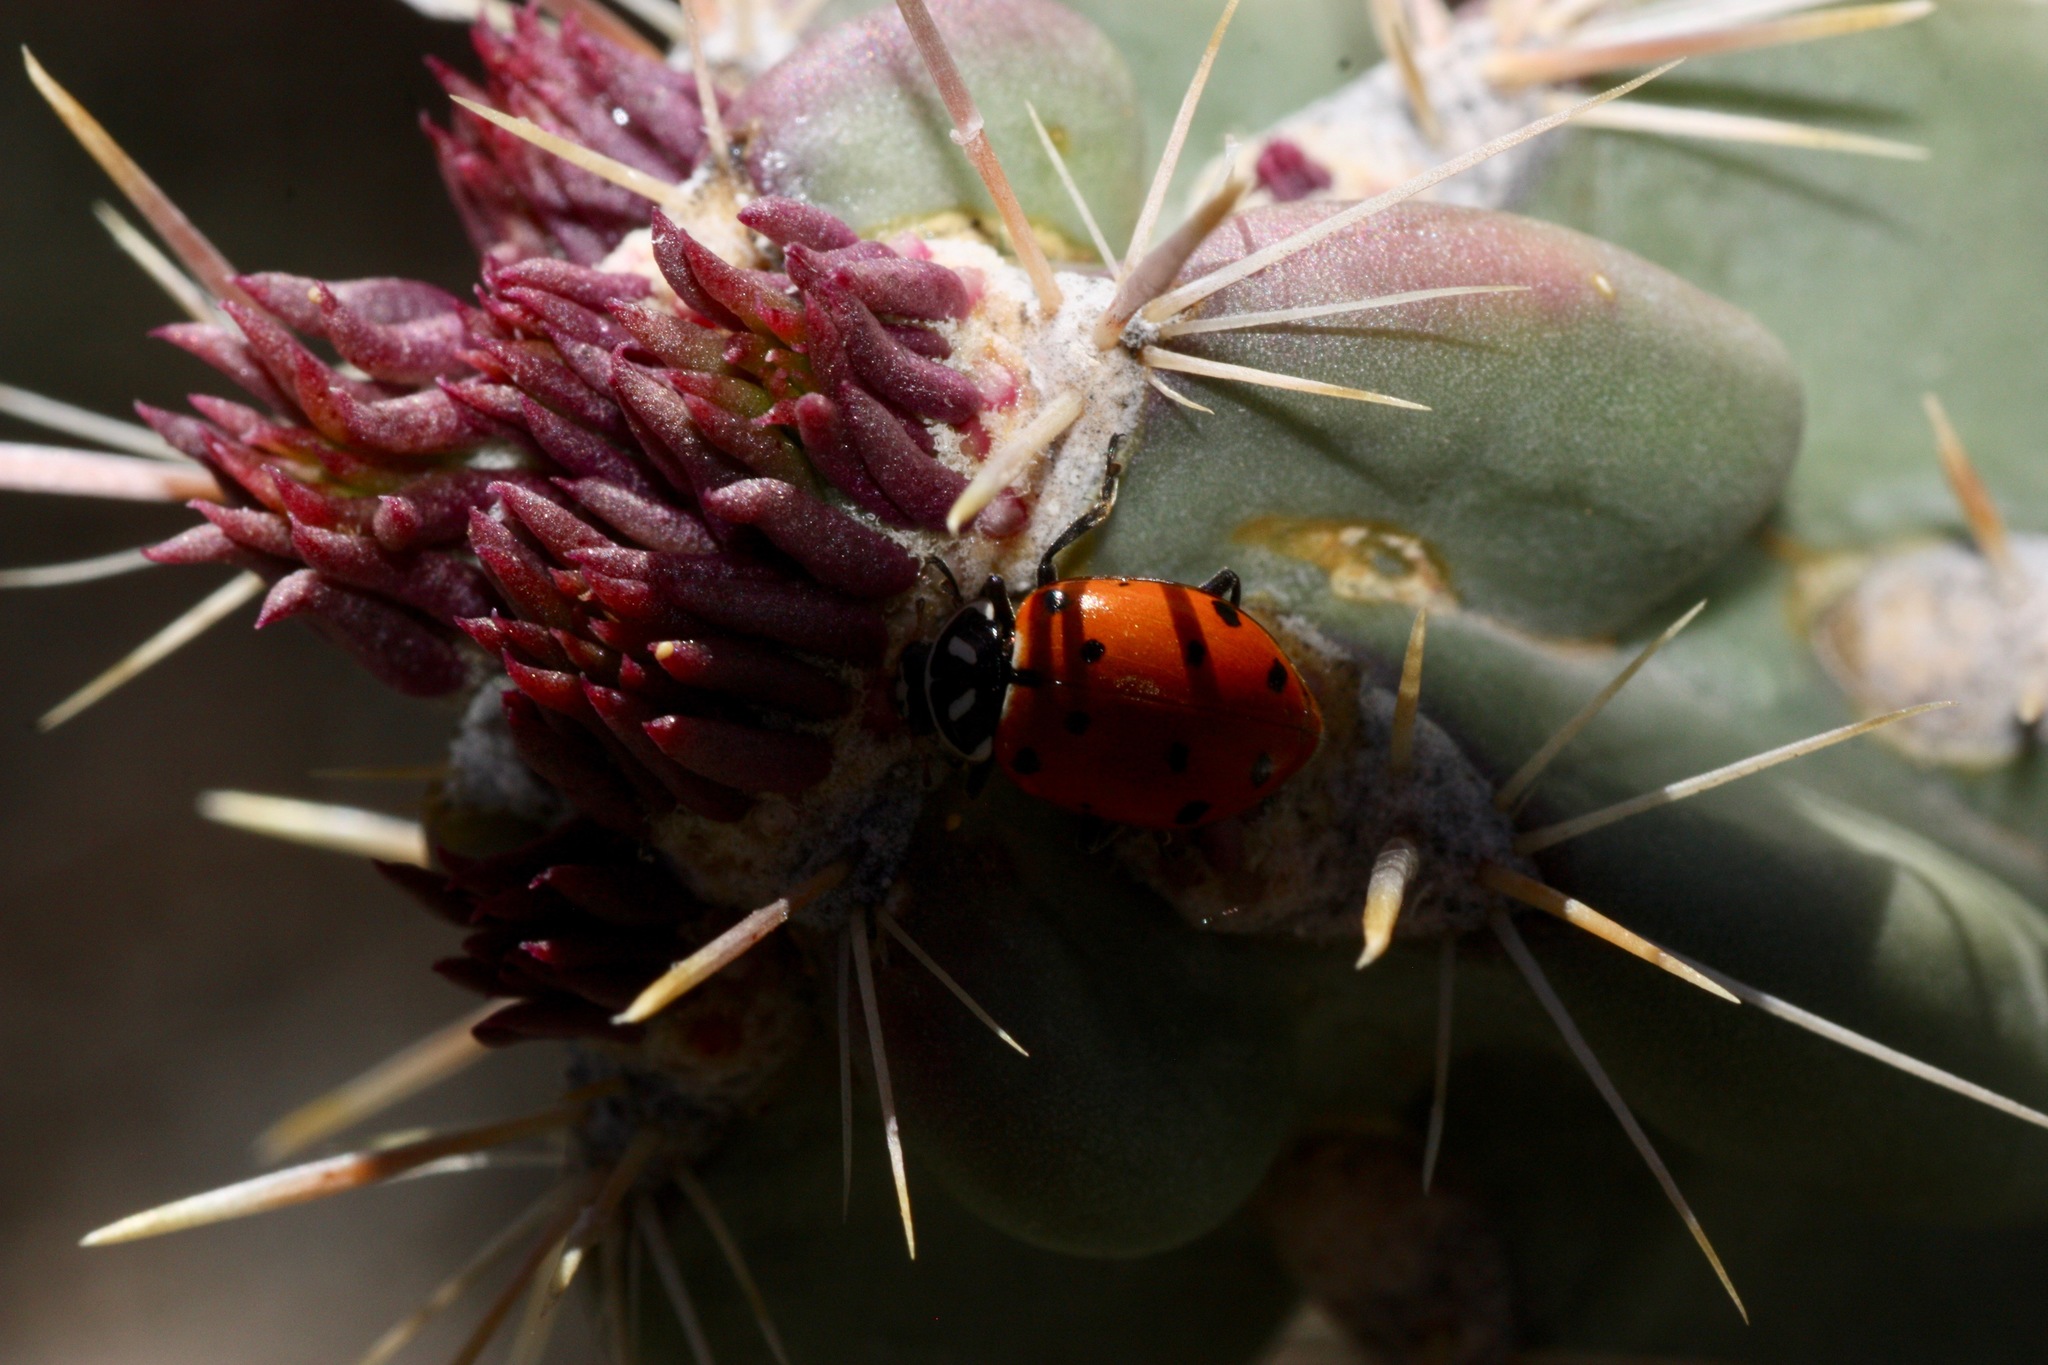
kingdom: Animalia
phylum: Arthropoda
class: Insecta
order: Coleoptera
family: Coccinellidae
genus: Hippodamia
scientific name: Hippodamia convergens
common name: Convergent lady beetle
